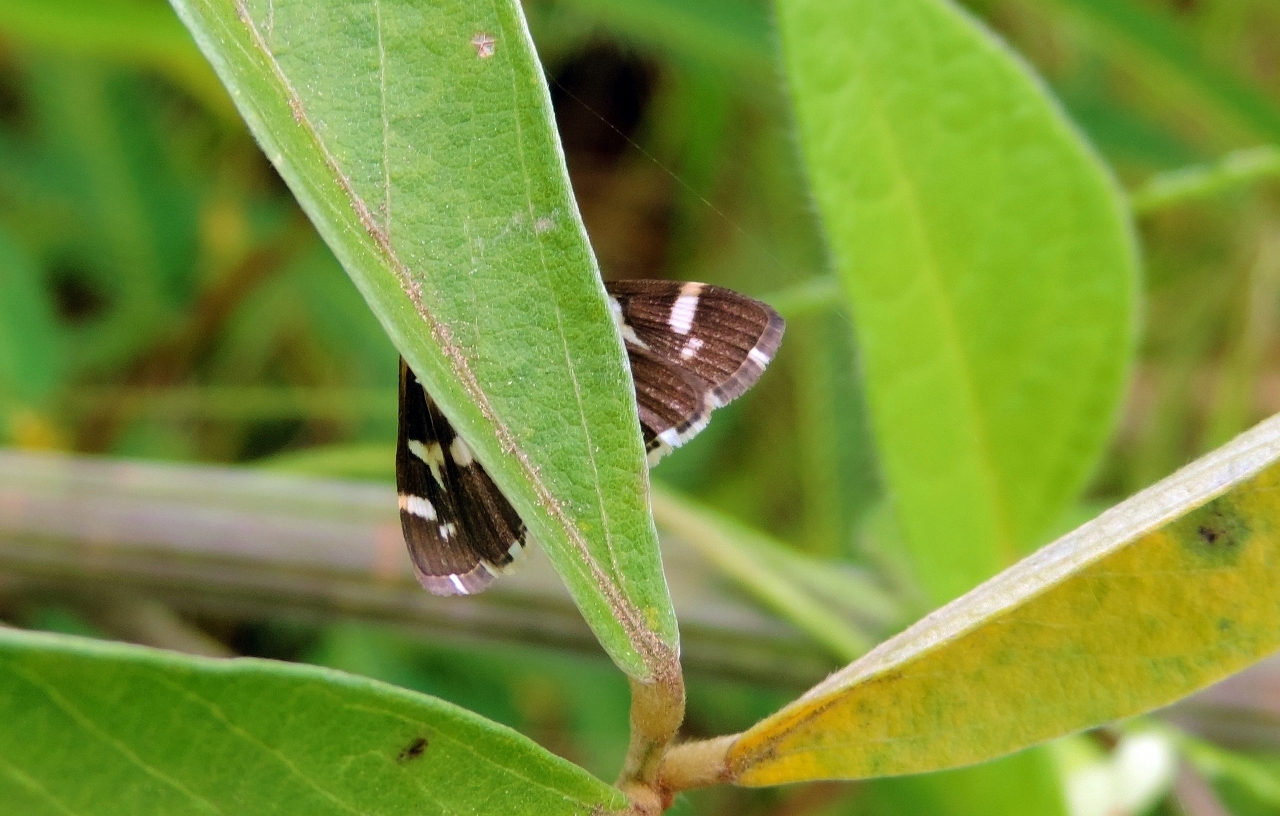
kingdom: Animalia
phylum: Arthropoda
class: Insecta
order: Lepidoptera
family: Crambidae
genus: Spoladea
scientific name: Spoladea recurvalis
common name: Beet webworm moth
